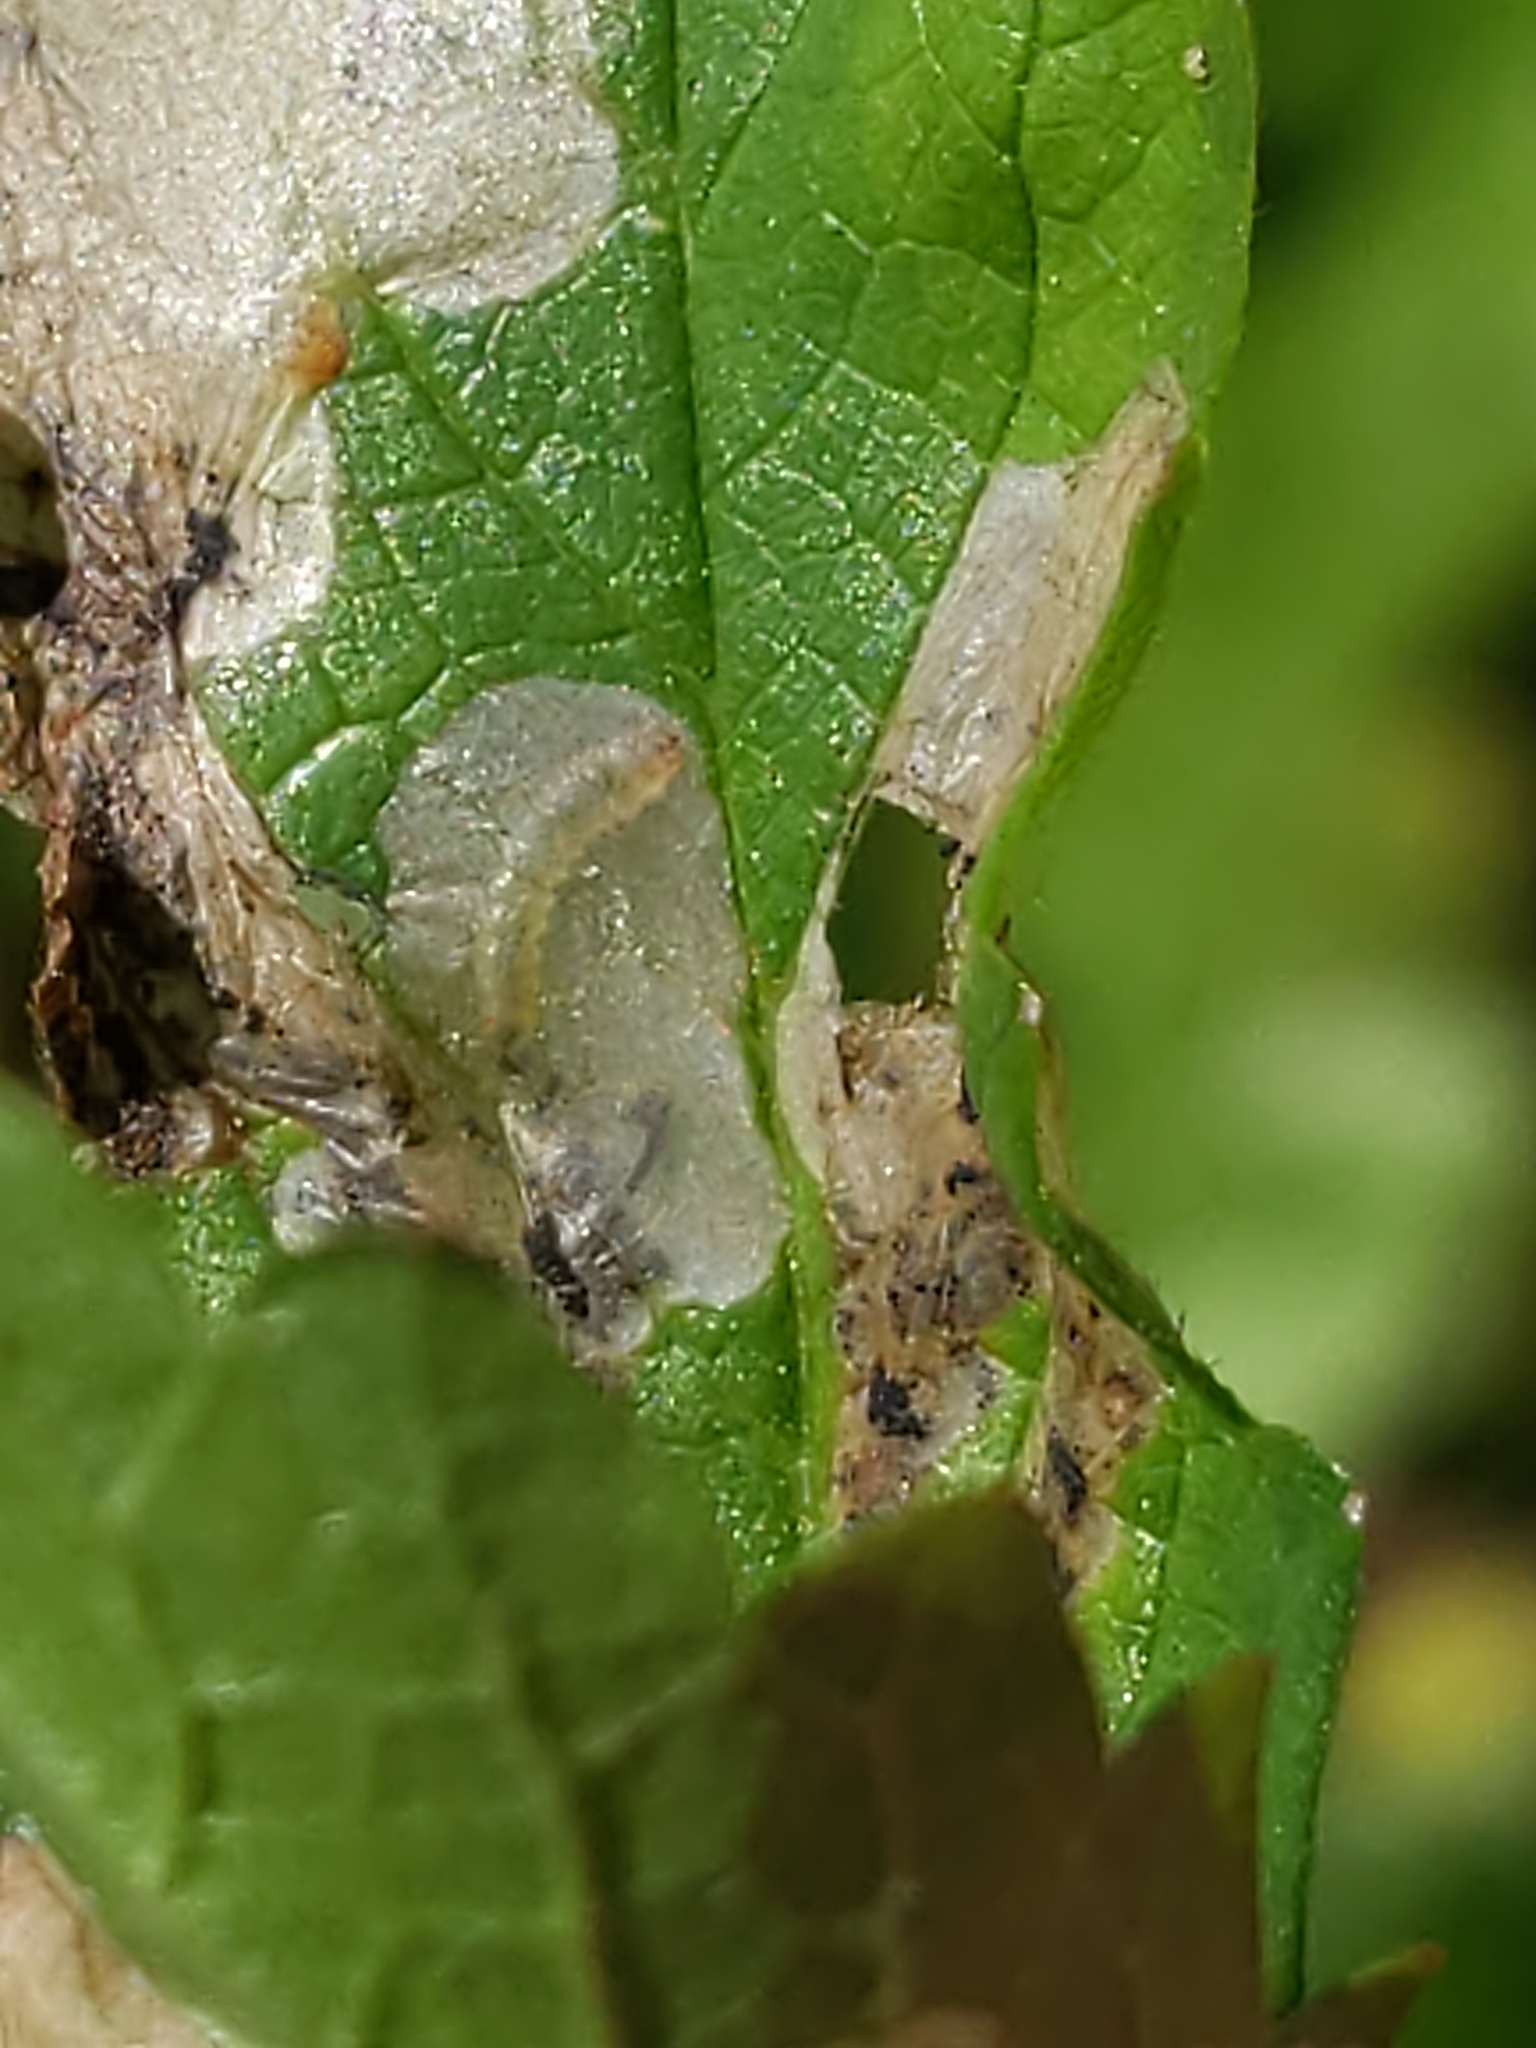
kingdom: Animalia
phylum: Arthropoda
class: Insecta
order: Hymenoptera
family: Tenthredinidae
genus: Fenella
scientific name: Fenella nigrita
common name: Tenthredid wasp
